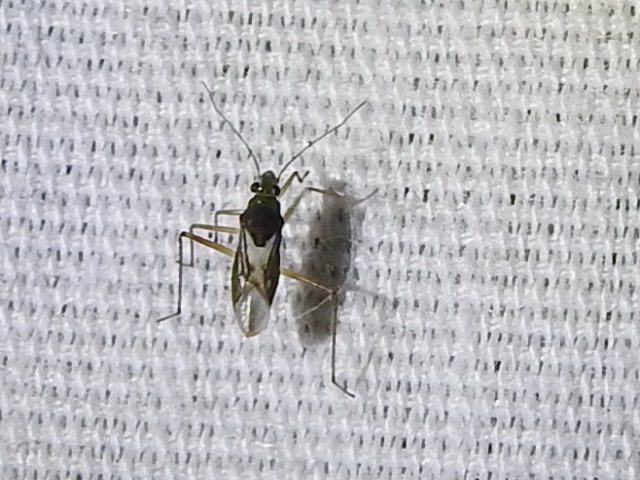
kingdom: Animalia
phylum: Arthropoda
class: Insecta
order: Hemiptera
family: Mesoveliidae
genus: Mesovelia
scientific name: Mesovelia mulsanti
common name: Water treaders
